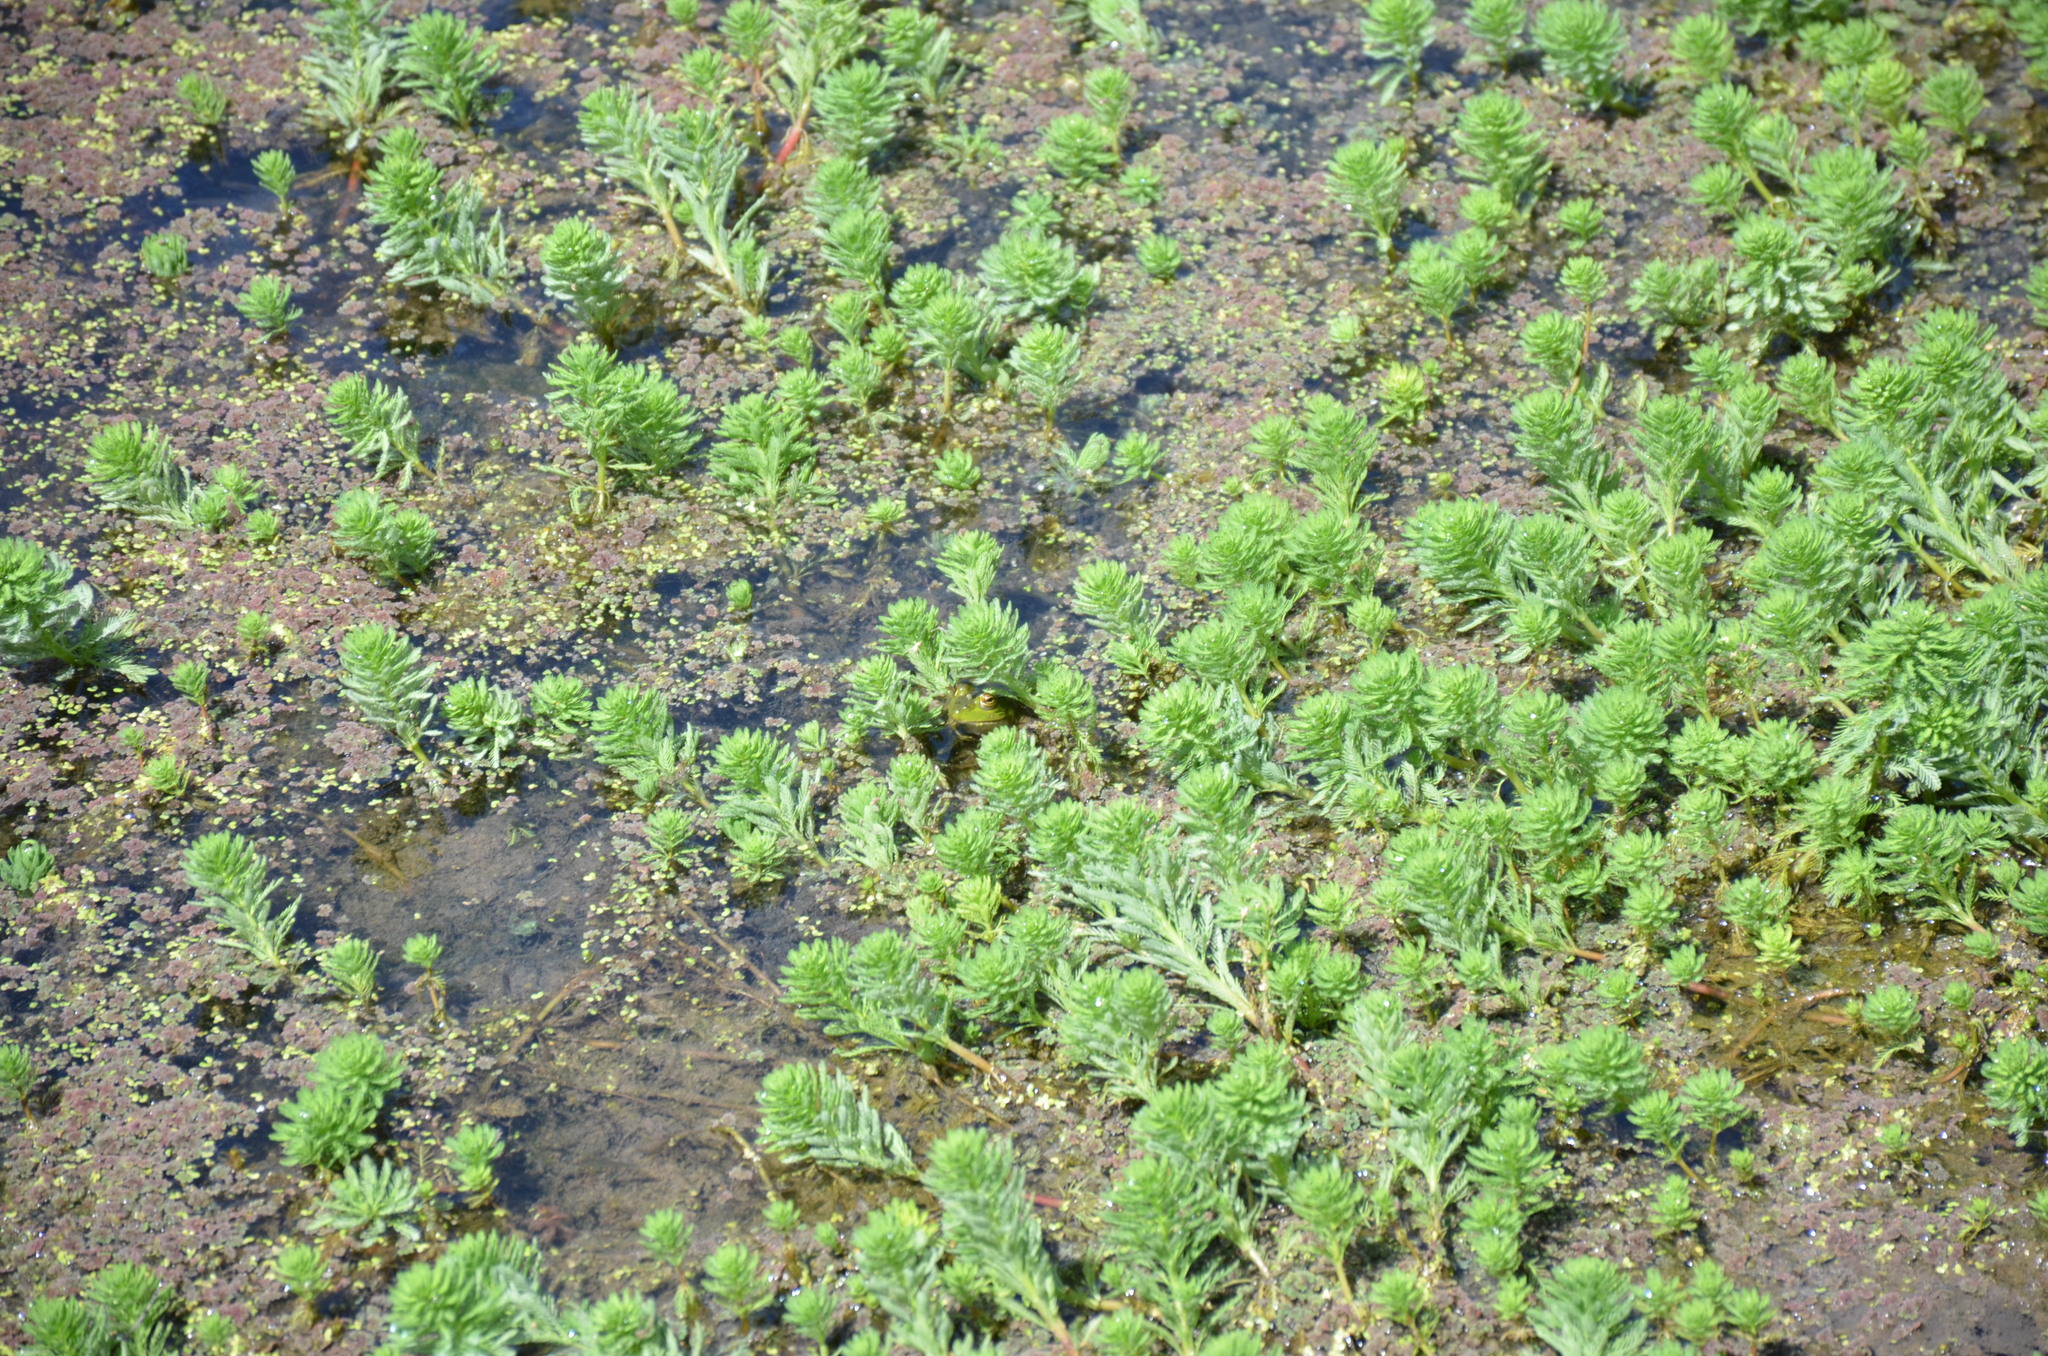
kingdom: Plantae
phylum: Tracheophyta
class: Magnoliopsida
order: Saxifragales
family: Haloragaceae
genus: Myriophyllum
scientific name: Myriophyllum aquaticum
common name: Parrot's feather
